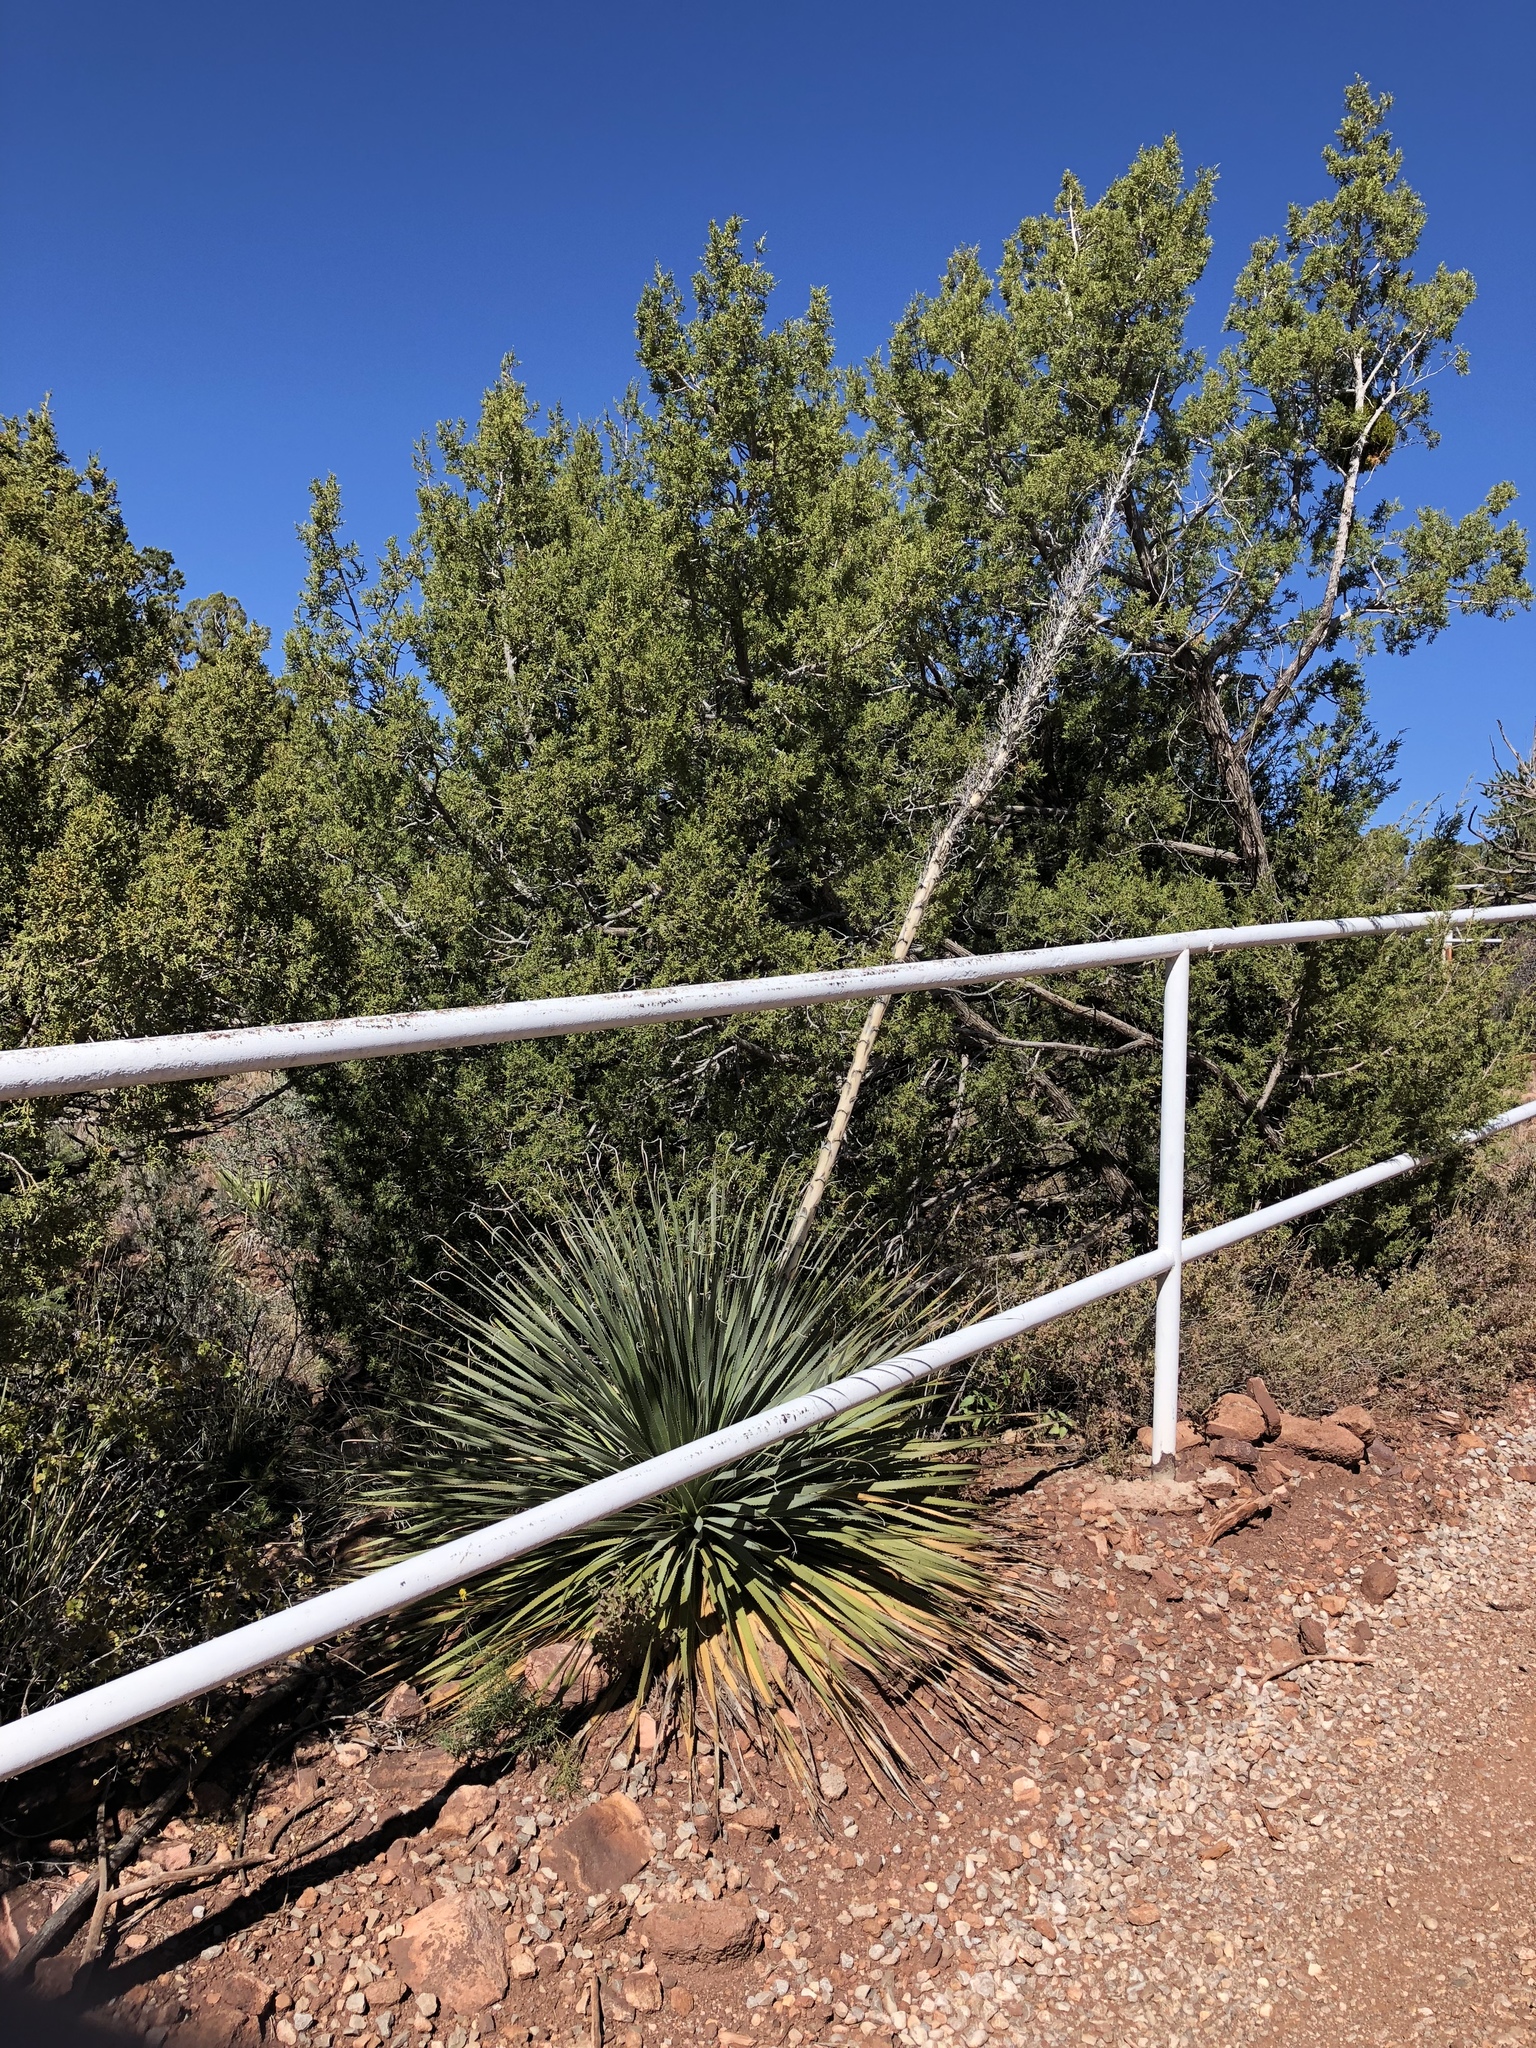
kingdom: Plantae
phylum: Tracheophyta
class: Liliopsida
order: Asparagales
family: Asparagaceae
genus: Dasylirion
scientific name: Dasylirion wheeleri
